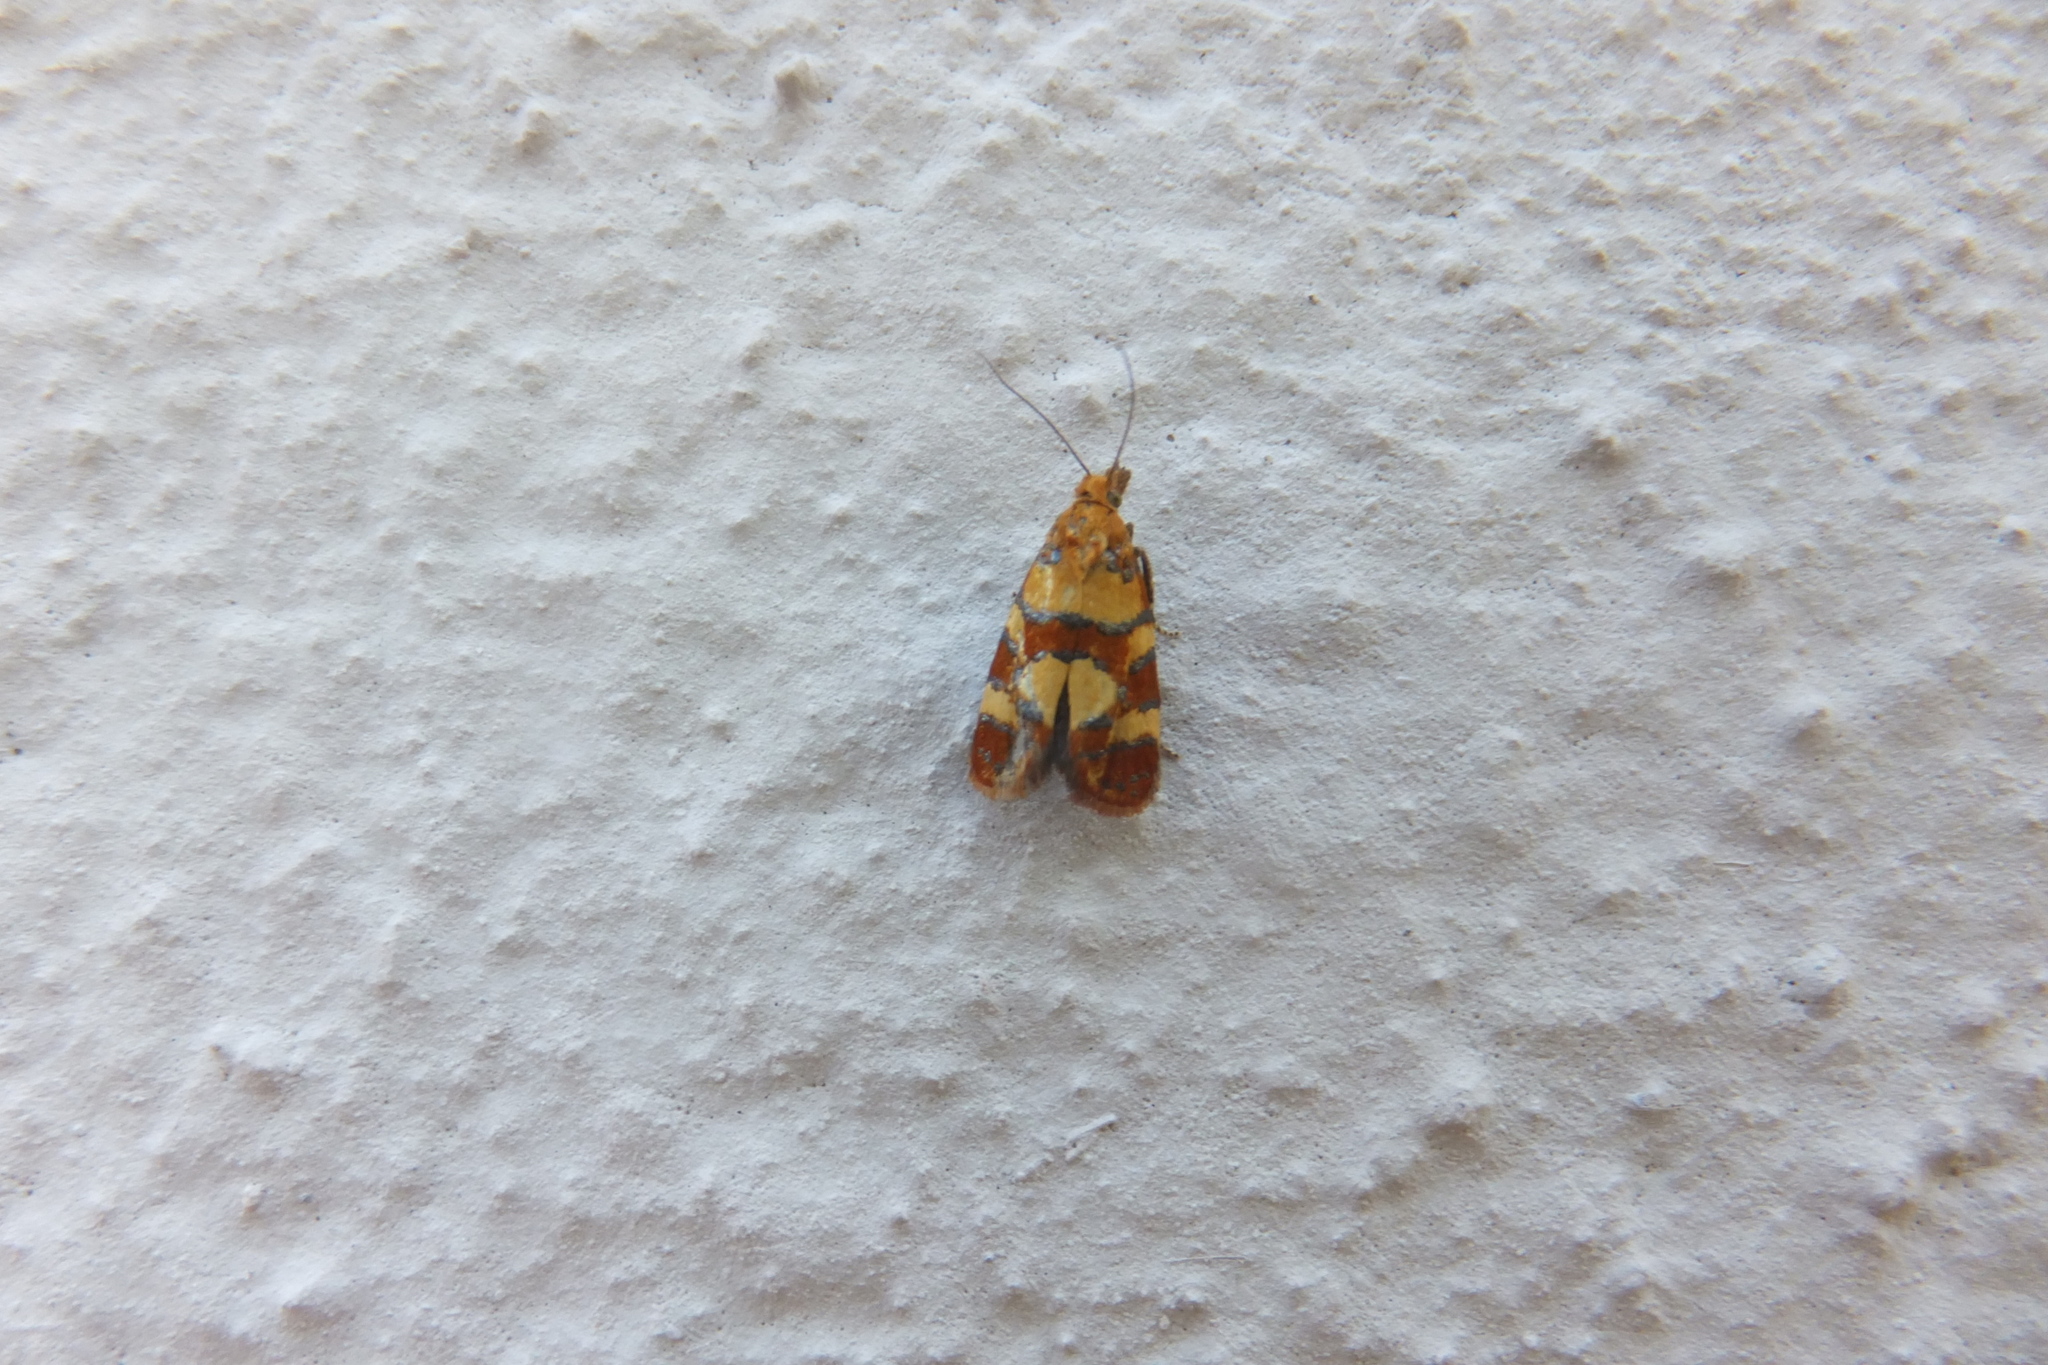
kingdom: Animalia
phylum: Arthropoda
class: Insecta
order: Lepidoptera
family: Tortricidae
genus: Aethes
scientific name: Aethes tesserana
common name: Downland conch
